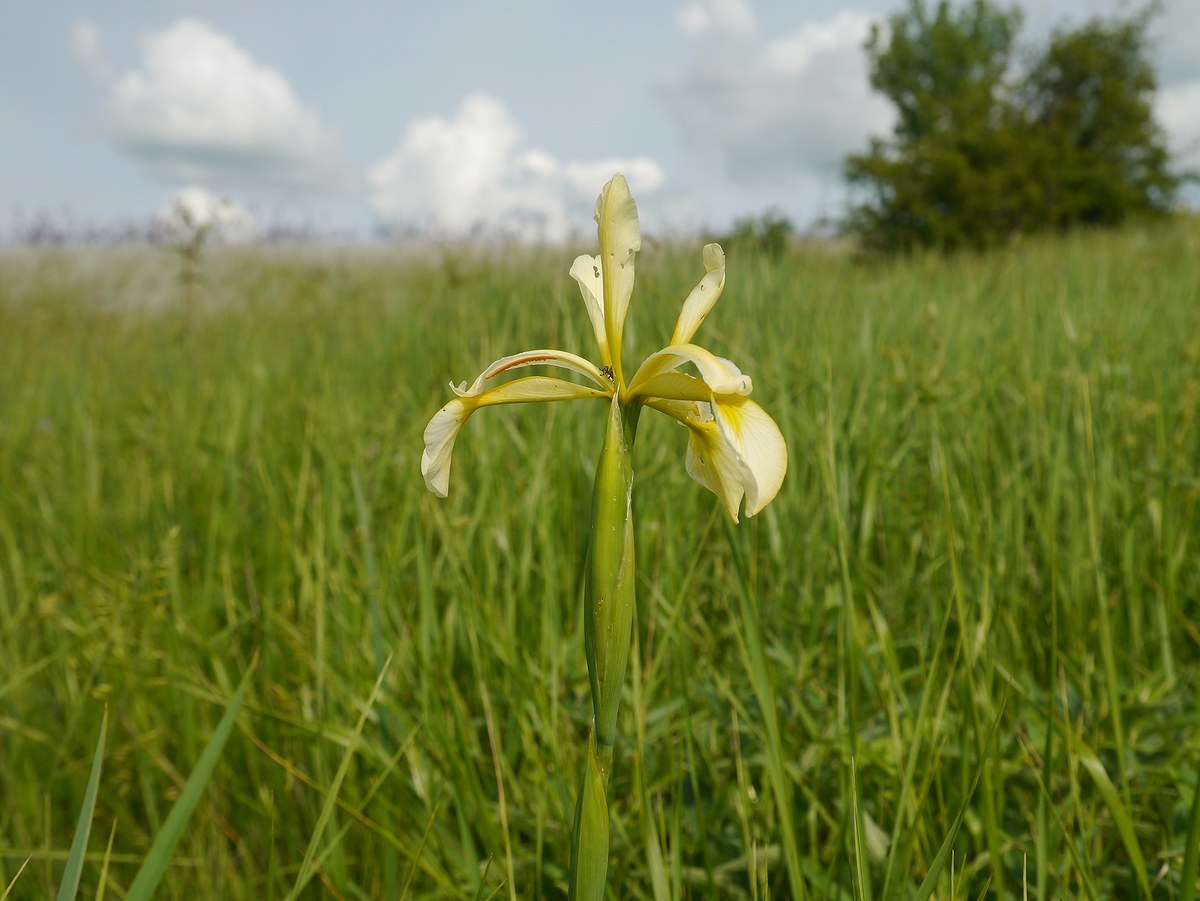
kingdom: Plantae
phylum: Tracheophyta
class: Liliopsida
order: Asparagales
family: Iridaceae
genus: Iris
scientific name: Iris halophila
